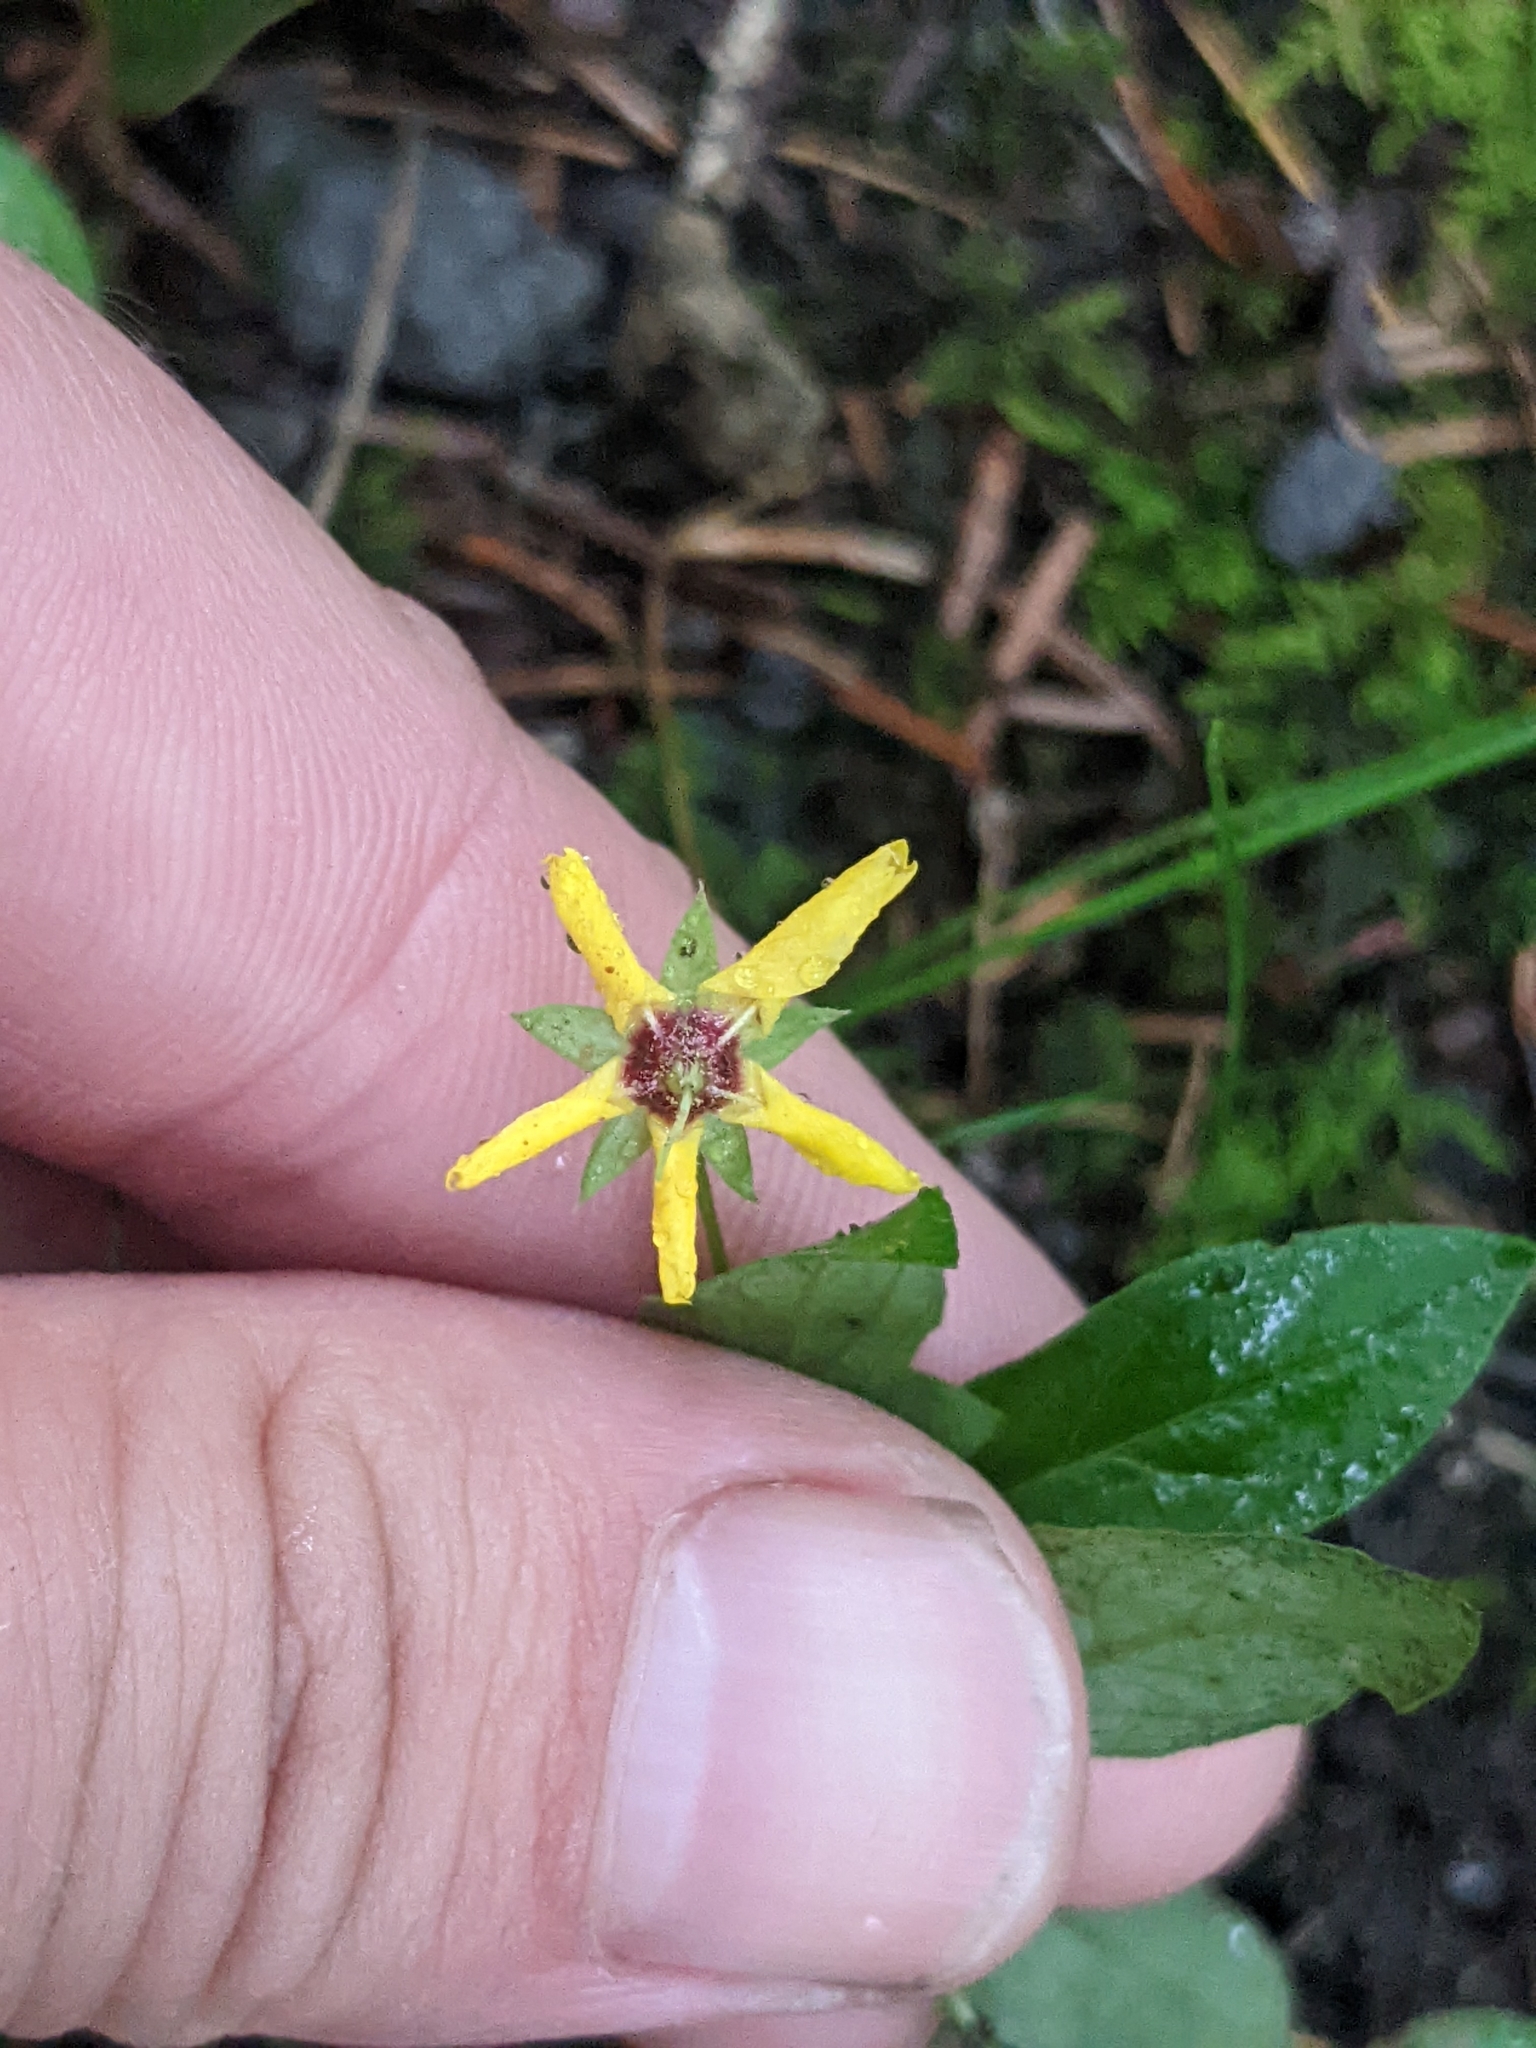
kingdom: Plantae
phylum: Tracheophyta
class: Magnoliopsida
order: Ericales
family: Primulaceae
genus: Lysimachia
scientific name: Lysimachia ciliata
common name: Fringed loosestrife
